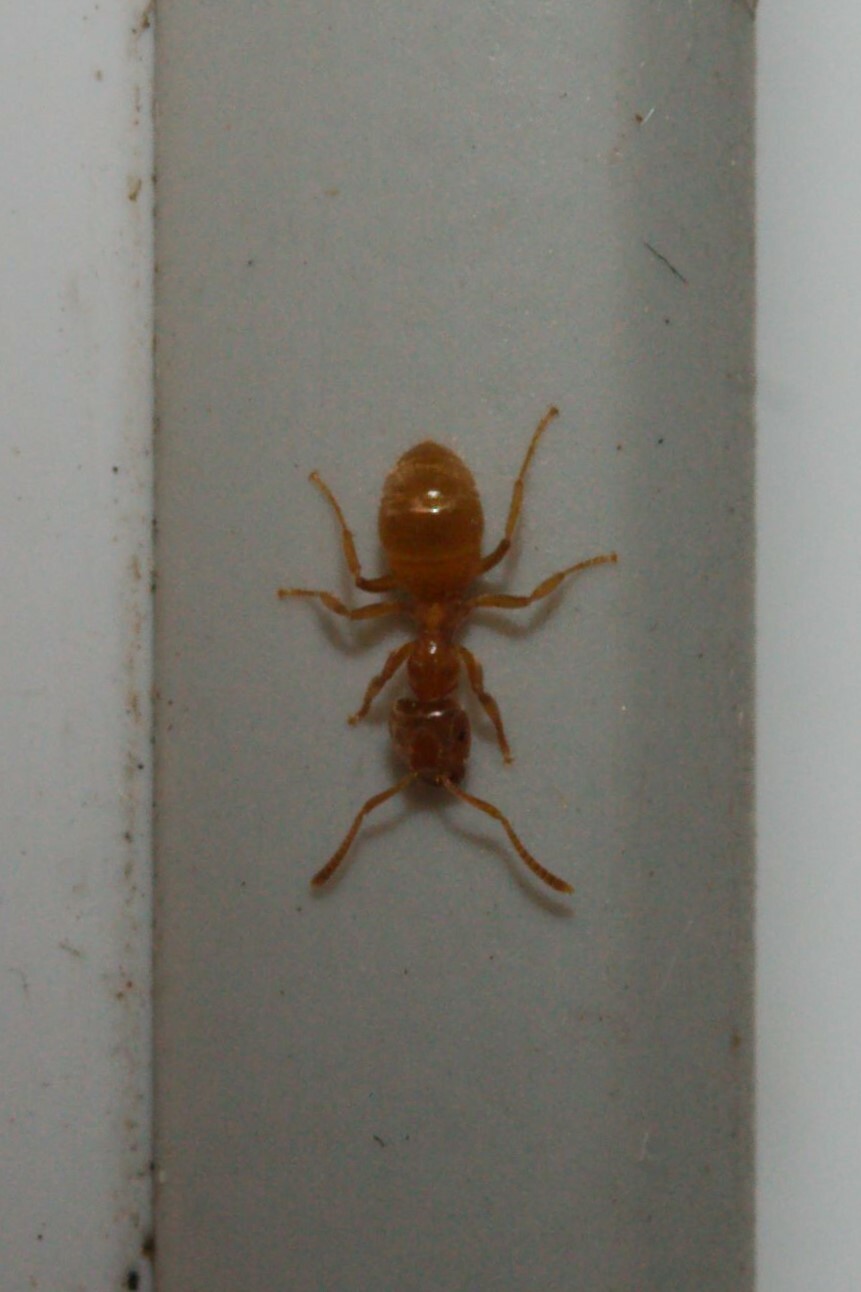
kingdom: Animalia
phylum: Arthropoda
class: Insecta
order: Hymenoptera
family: Formicidae
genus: Lasius
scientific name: Lasius flavus
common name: Blond field ant
